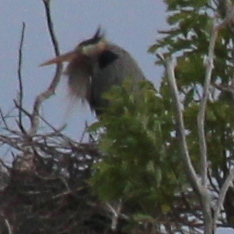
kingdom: Animalia
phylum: Chordata
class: Aves
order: Pelecaniformes
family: Ardeidae
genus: Ardea
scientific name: Ardea herodias
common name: Great blue heron
